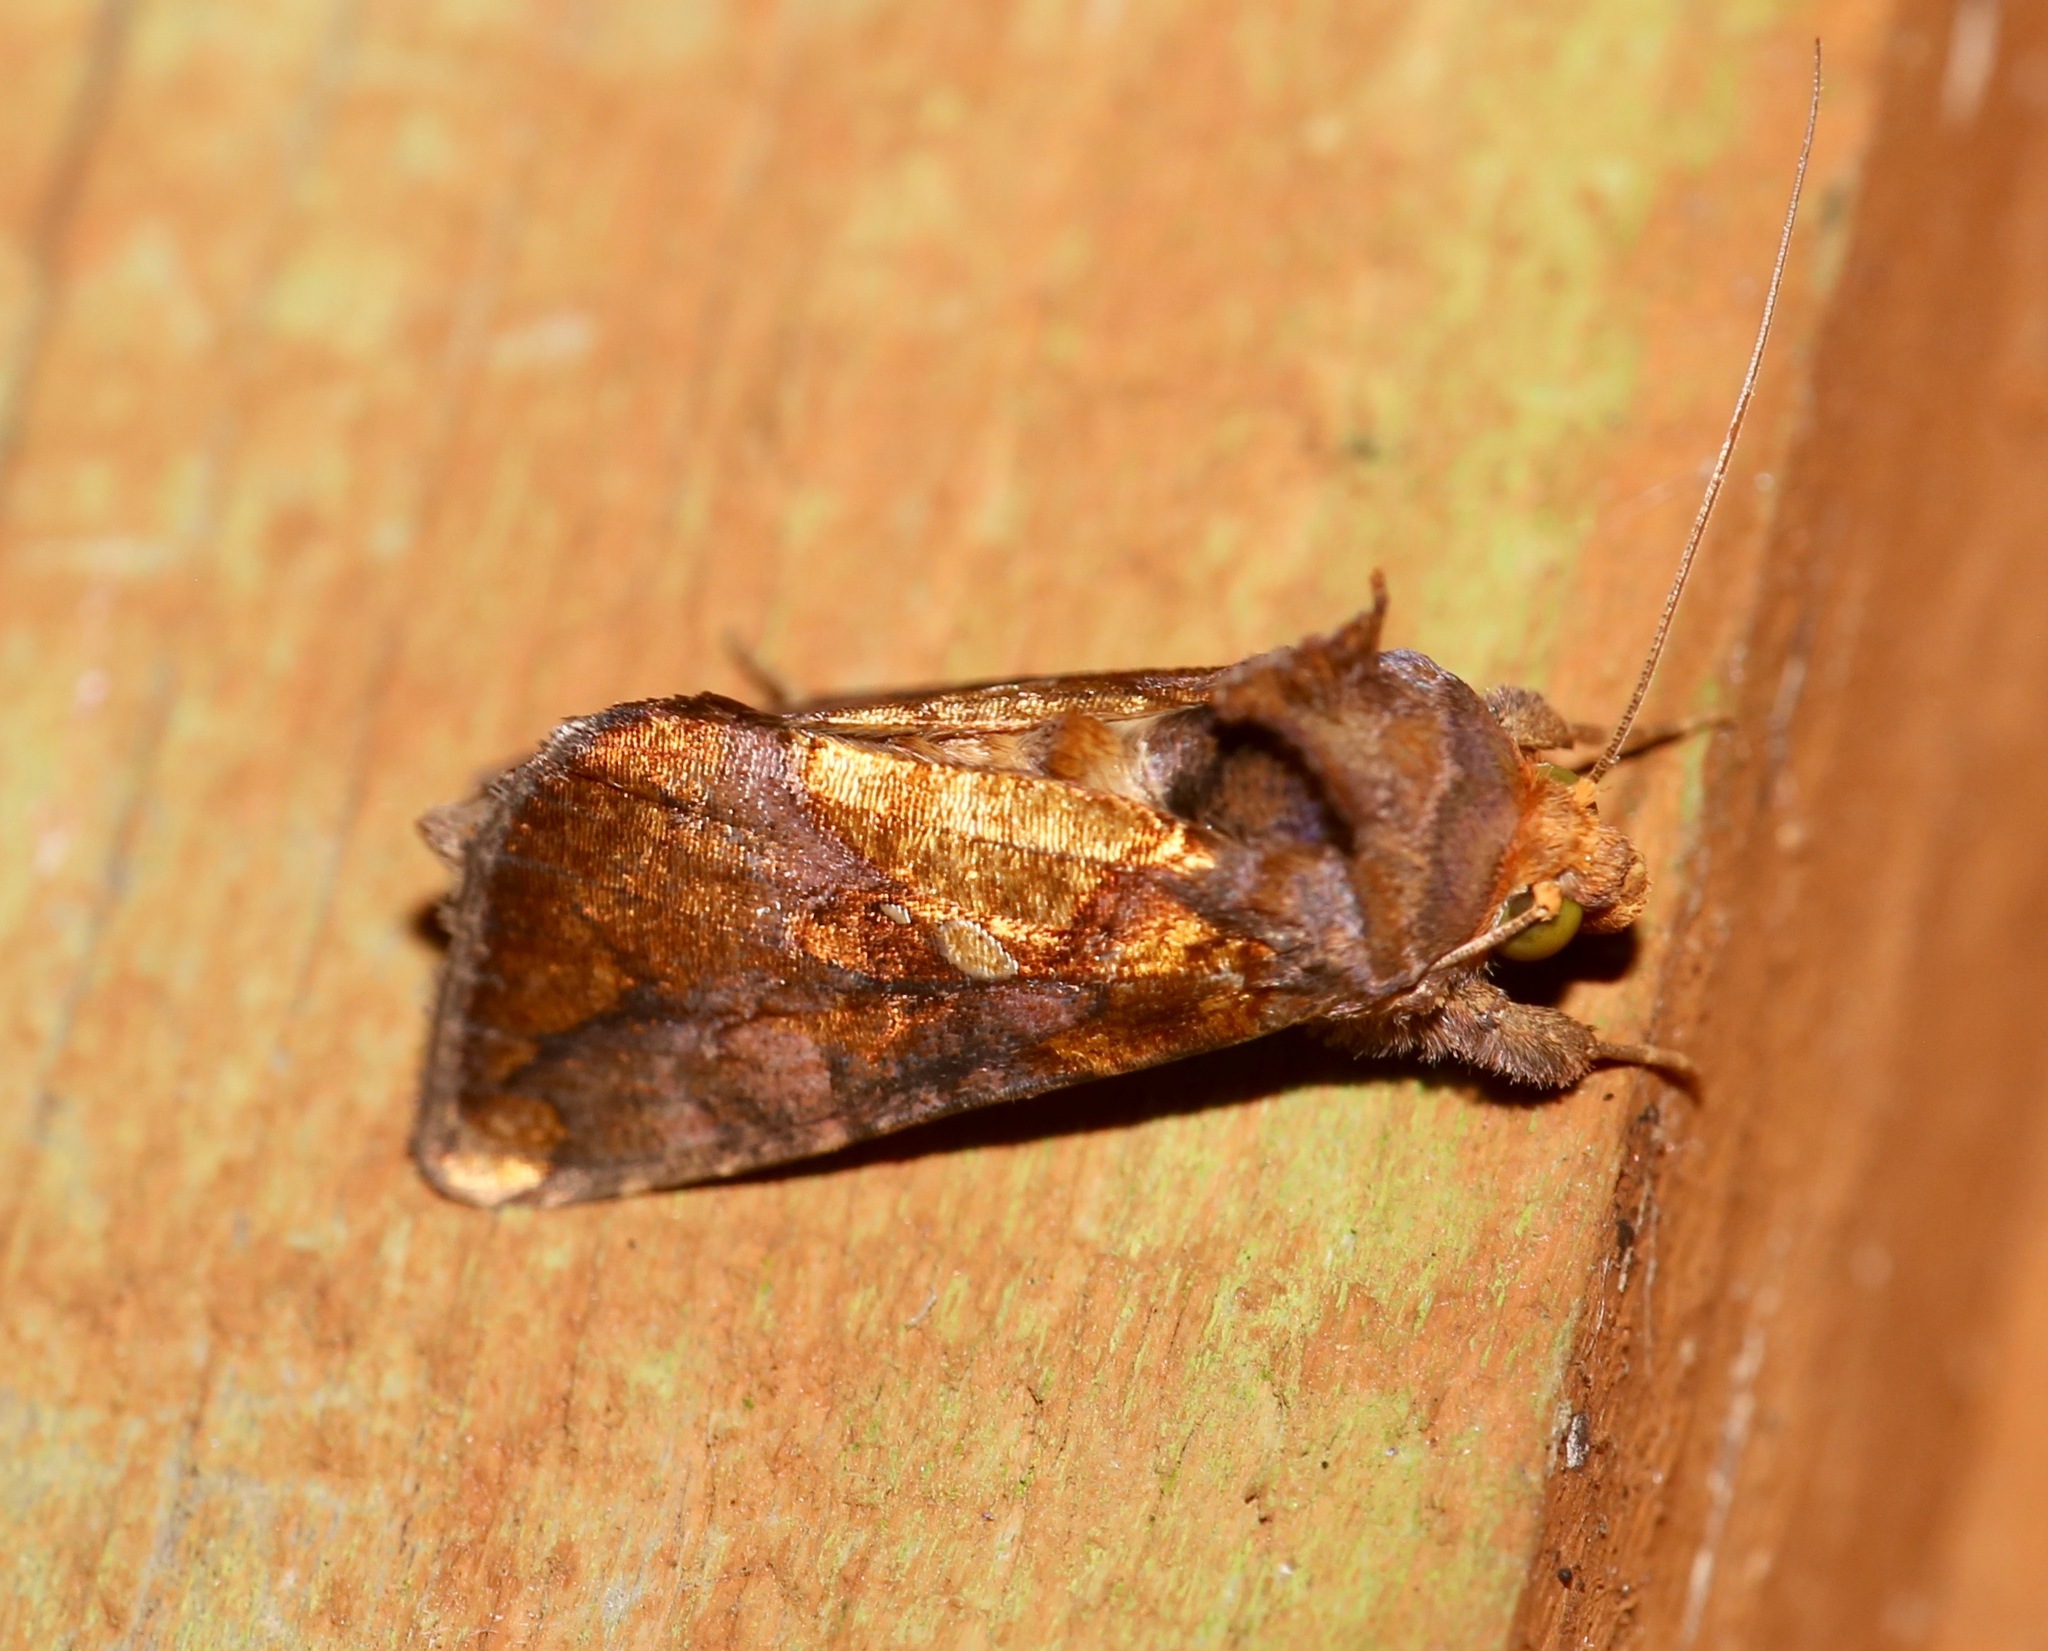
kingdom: Animalia
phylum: Arthropoda
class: Insecta
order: Lepidoptera
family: Noctuidae
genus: Argyrogramma
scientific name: Argyrogramma verruca
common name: Golden looper moth
